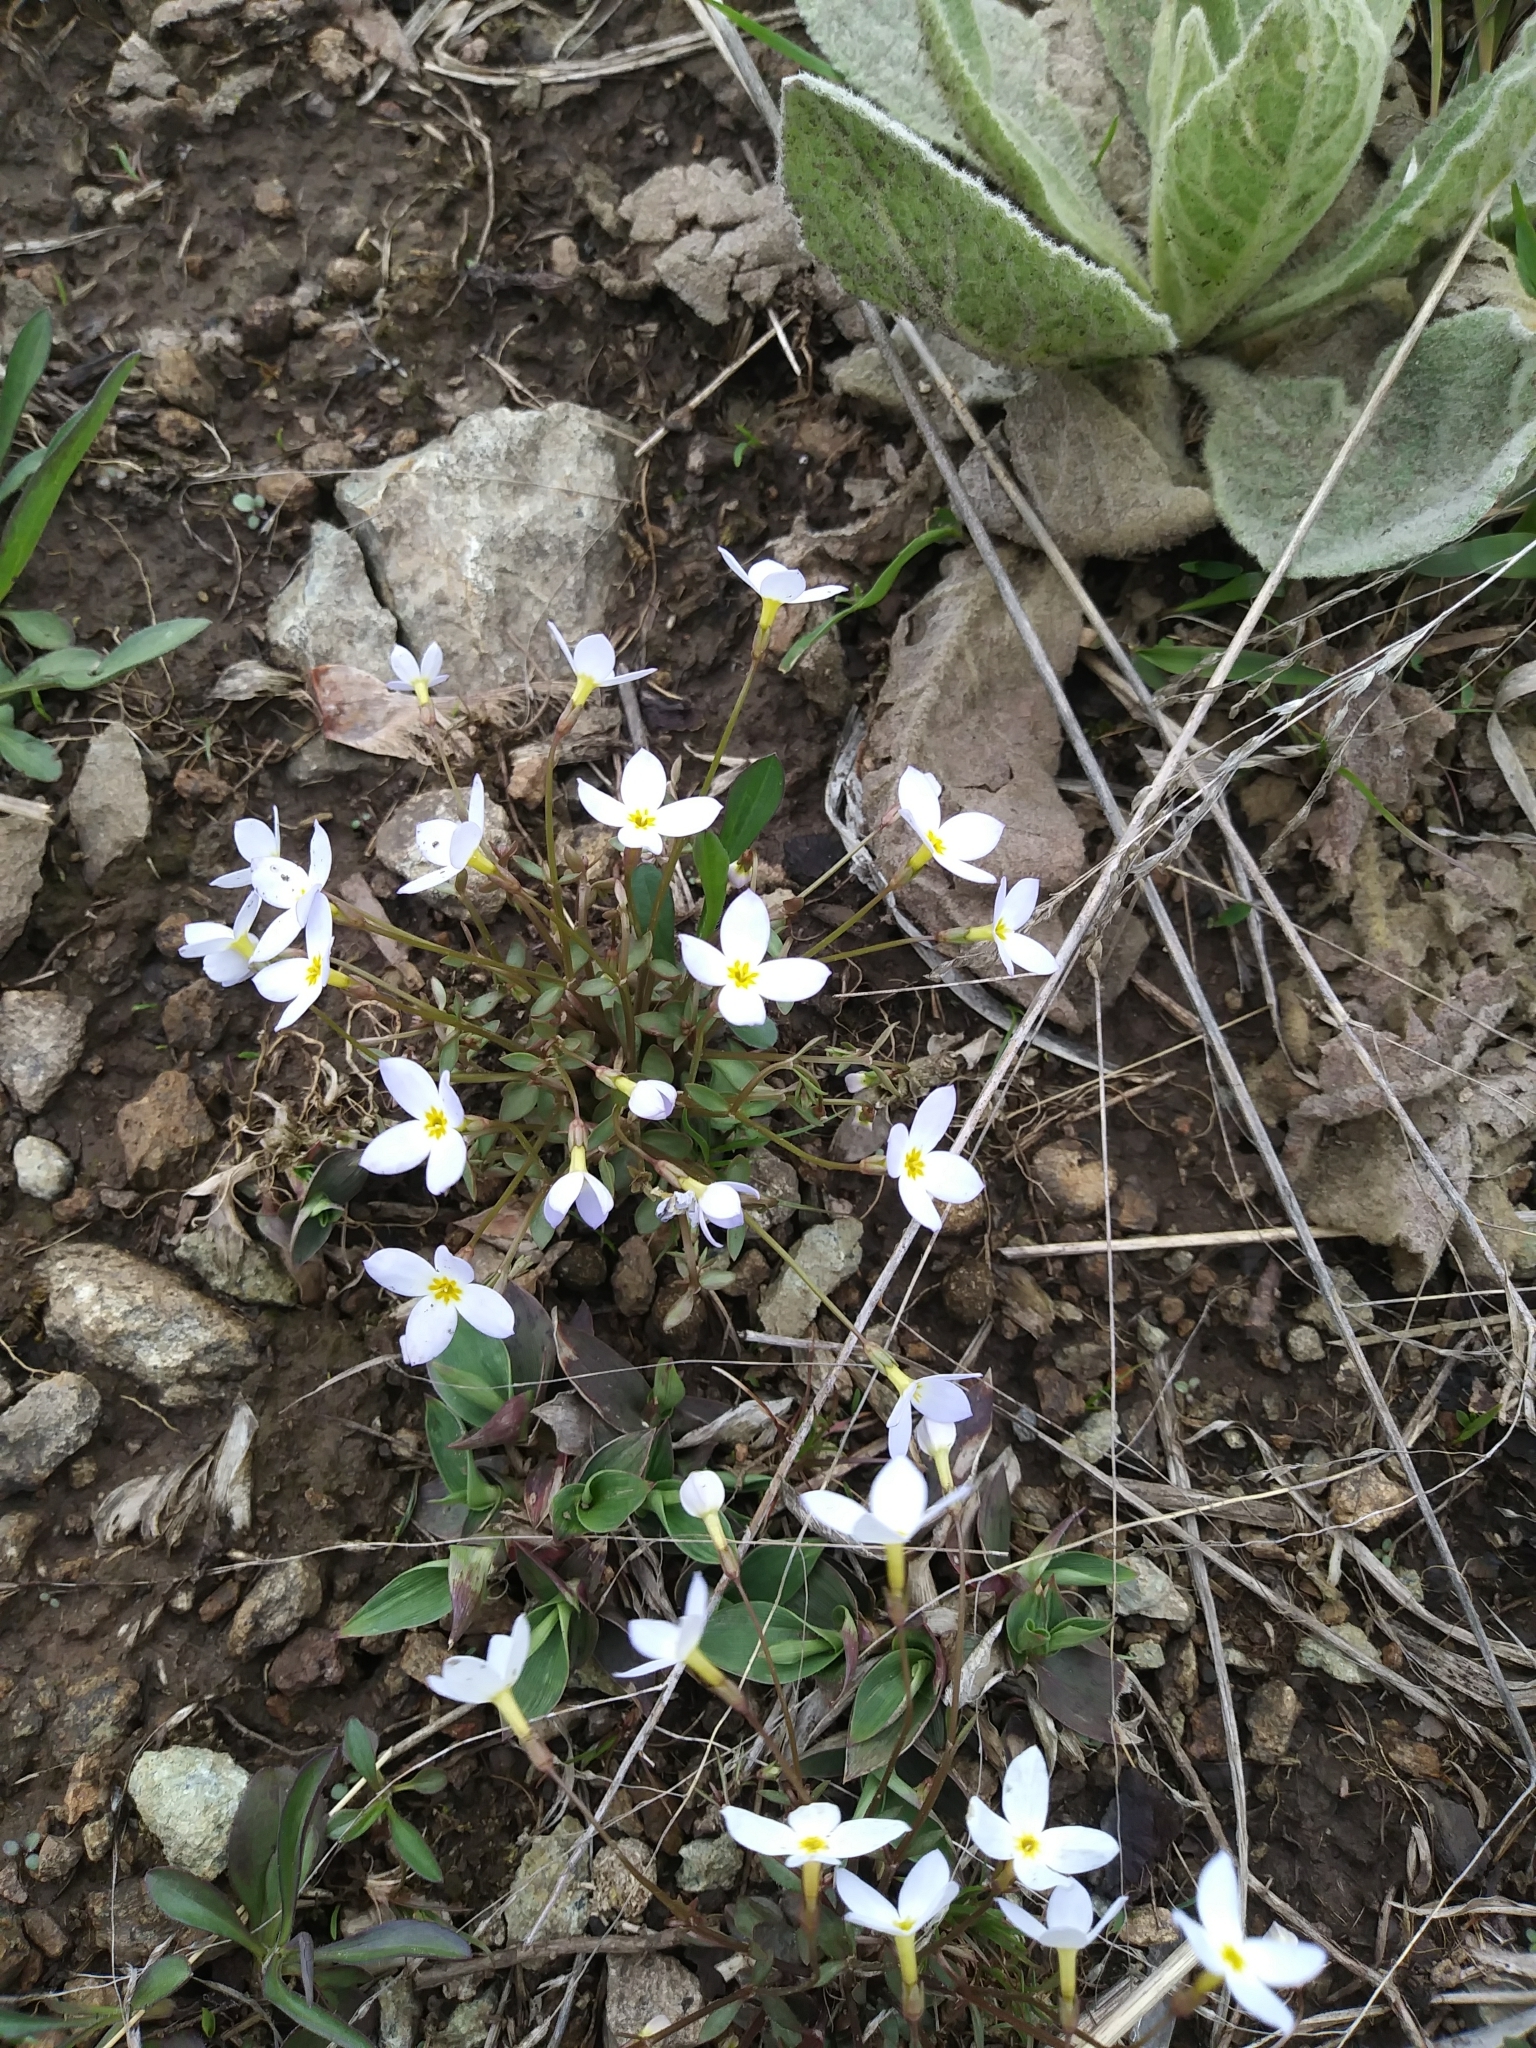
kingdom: Plantae
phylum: Tracheophyta
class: Magnoliopsida
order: Gentianales
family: Rubiaceae
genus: Houstonia
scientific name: Houstonia caerulea
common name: Bluets
